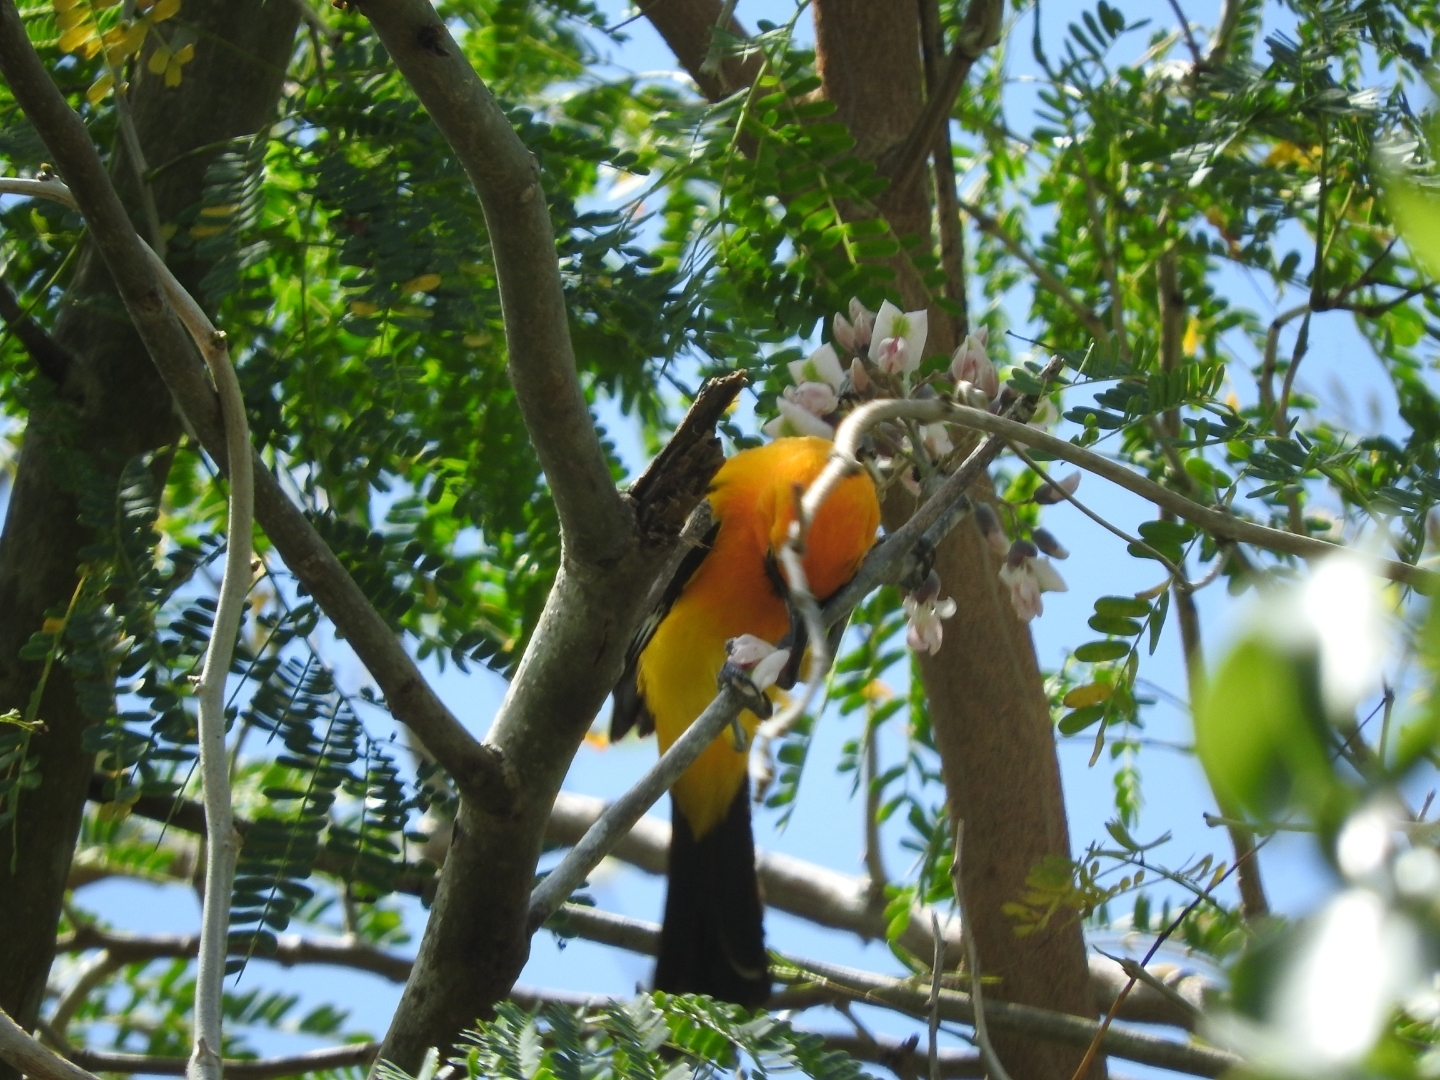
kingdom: Animalia
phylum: Chordata
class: Aves
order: Passeriformes
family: Icteridae
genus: Icterus
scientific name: Icterus auratus
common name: Orange oriole
